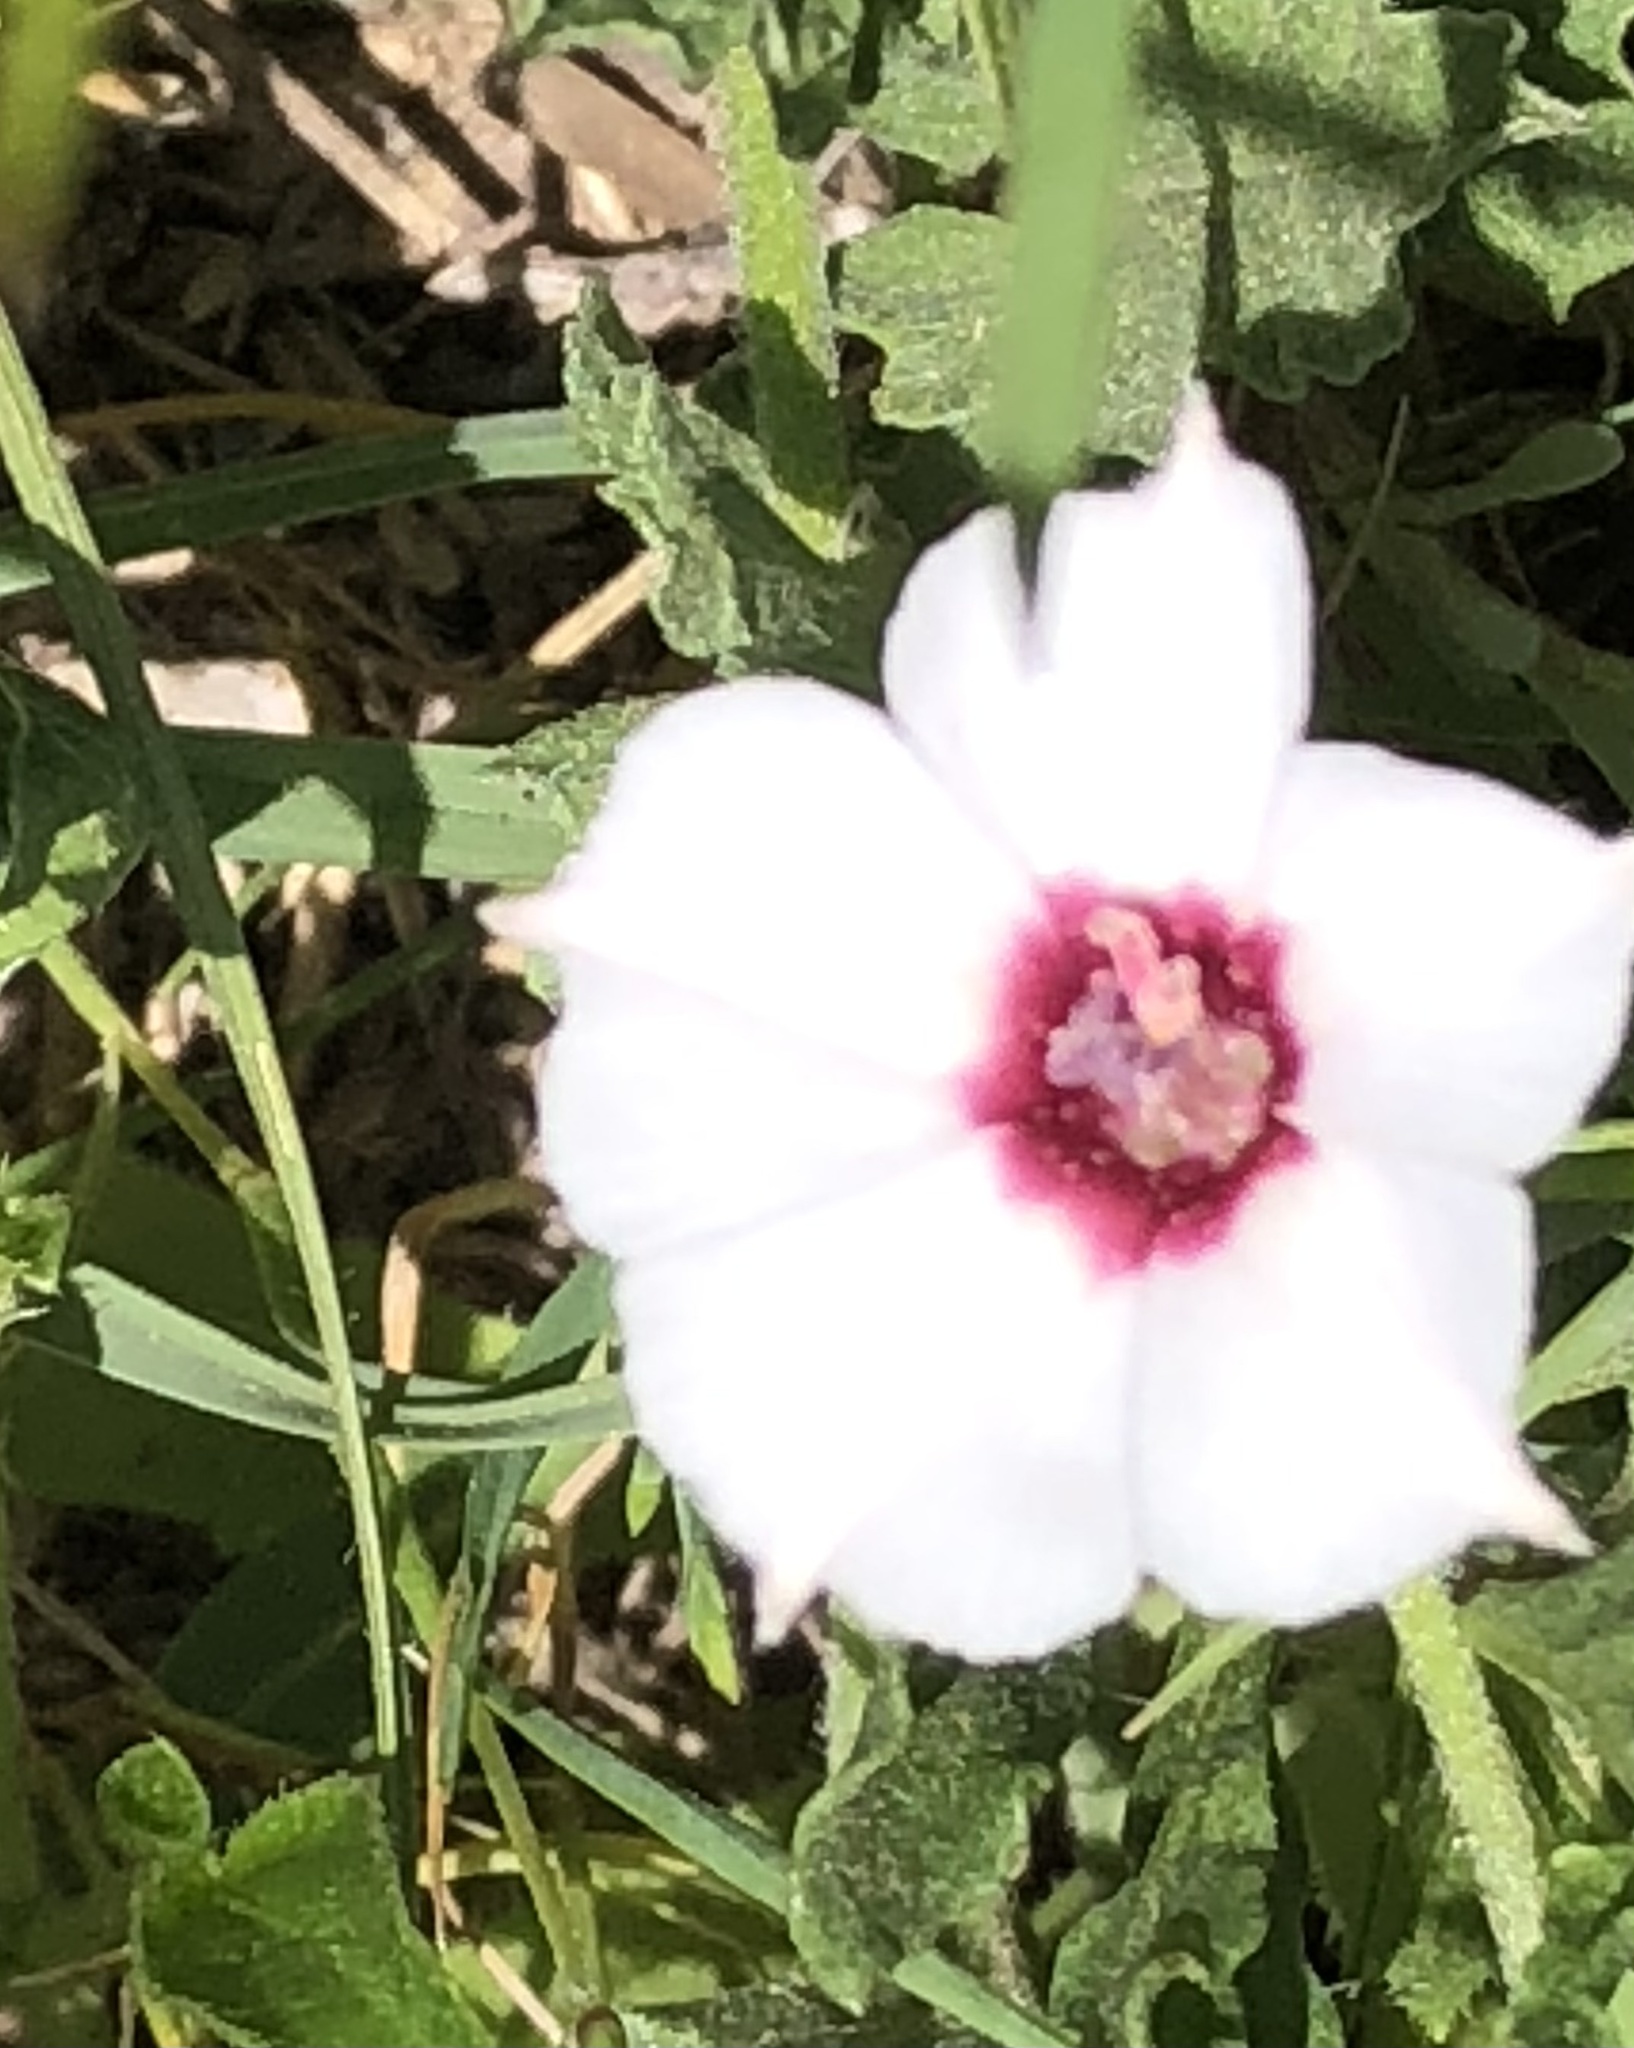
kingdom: Plantae
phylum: Tracheophyta
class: Magnoliopsida
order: Solanales
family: Convolvulaceae
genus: Convolvulus
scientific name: Convolvulus equitans
